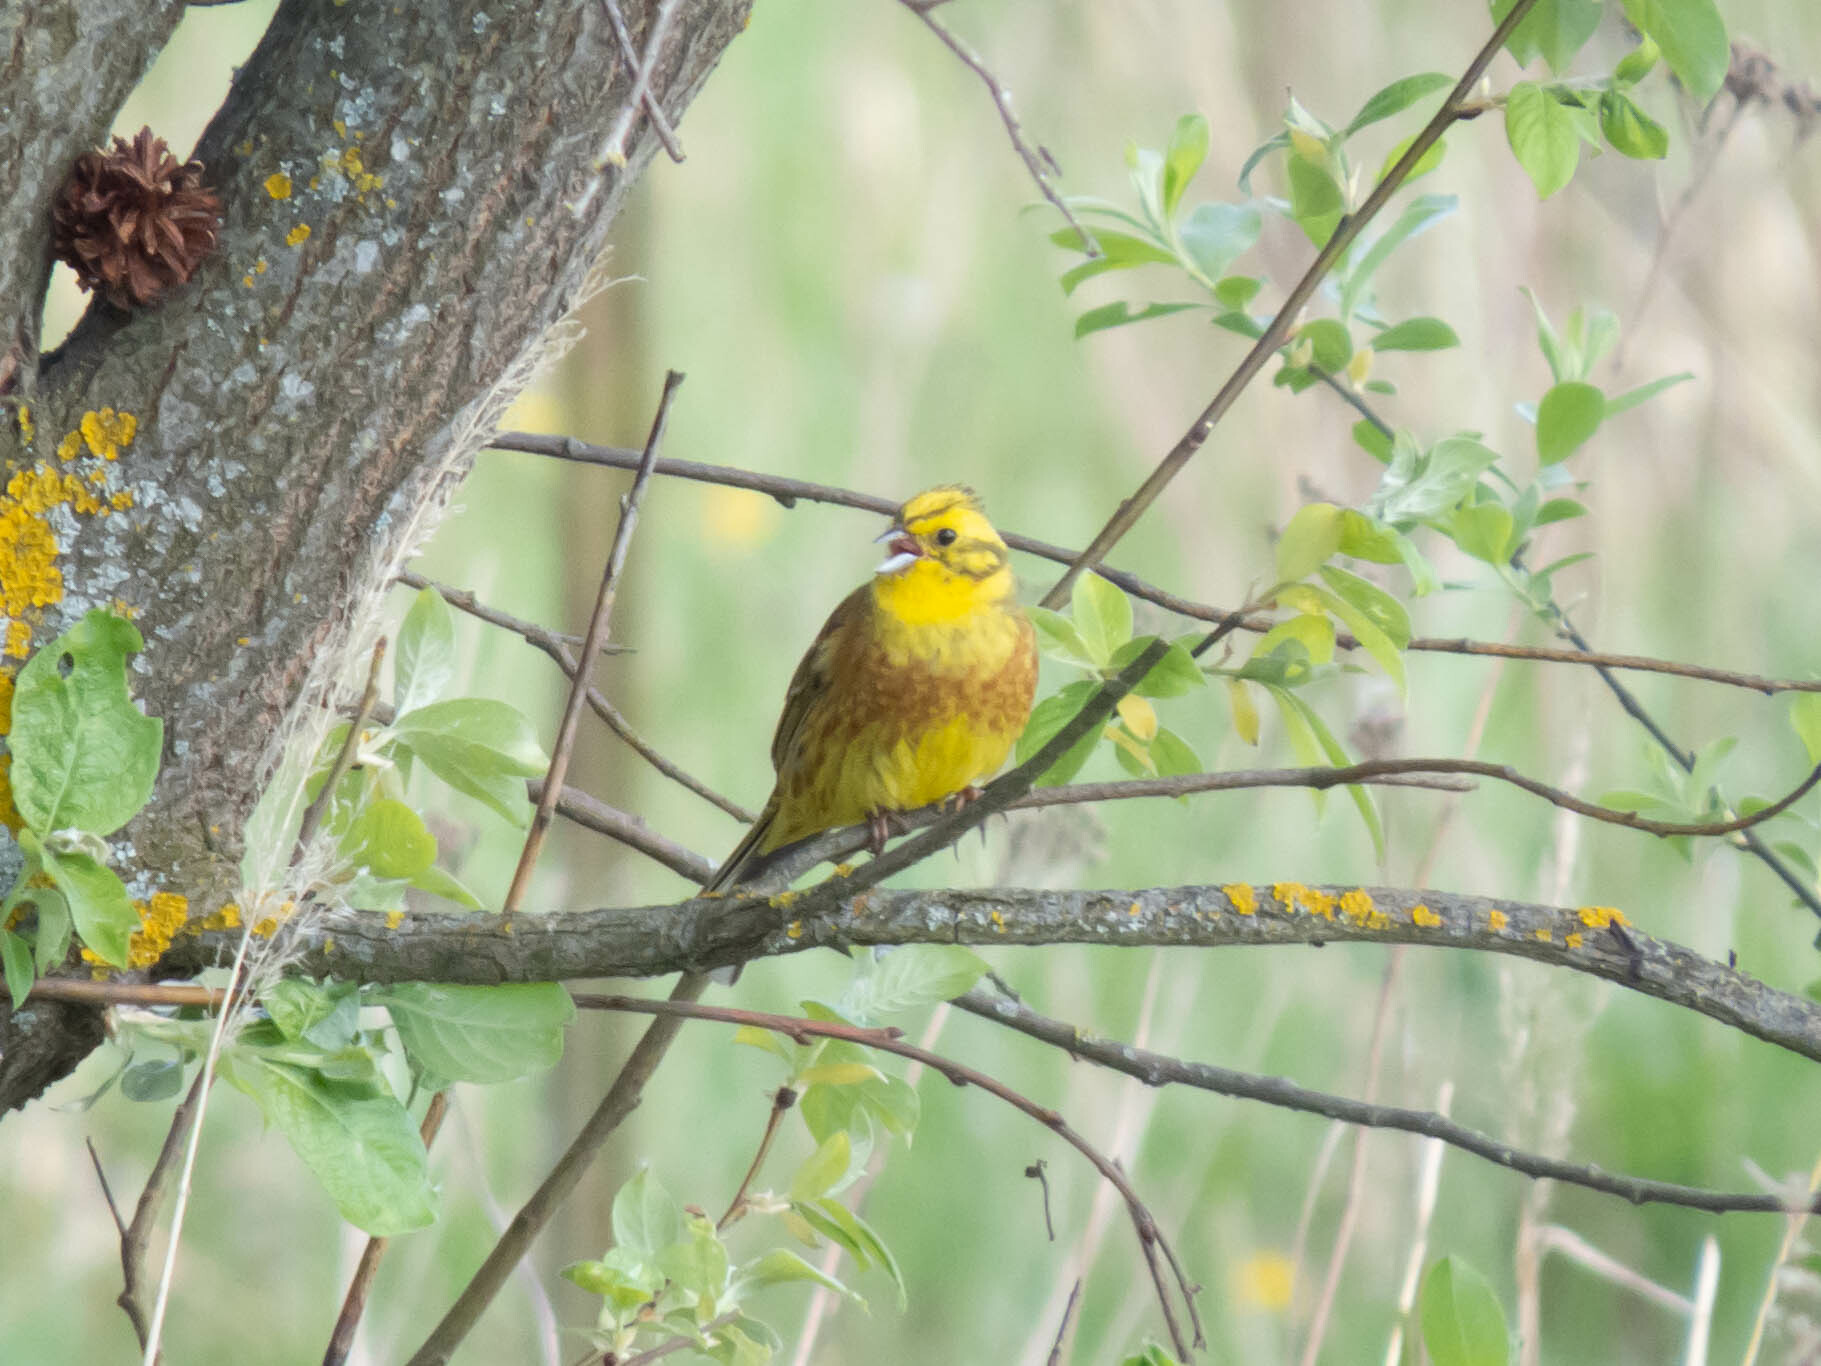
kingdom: Animalia
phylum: Chordata
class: Aves
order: Passeriformes
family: Emberizidae
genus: Emberiza
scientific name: Emberiza citrinella
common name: Yellowhammer
